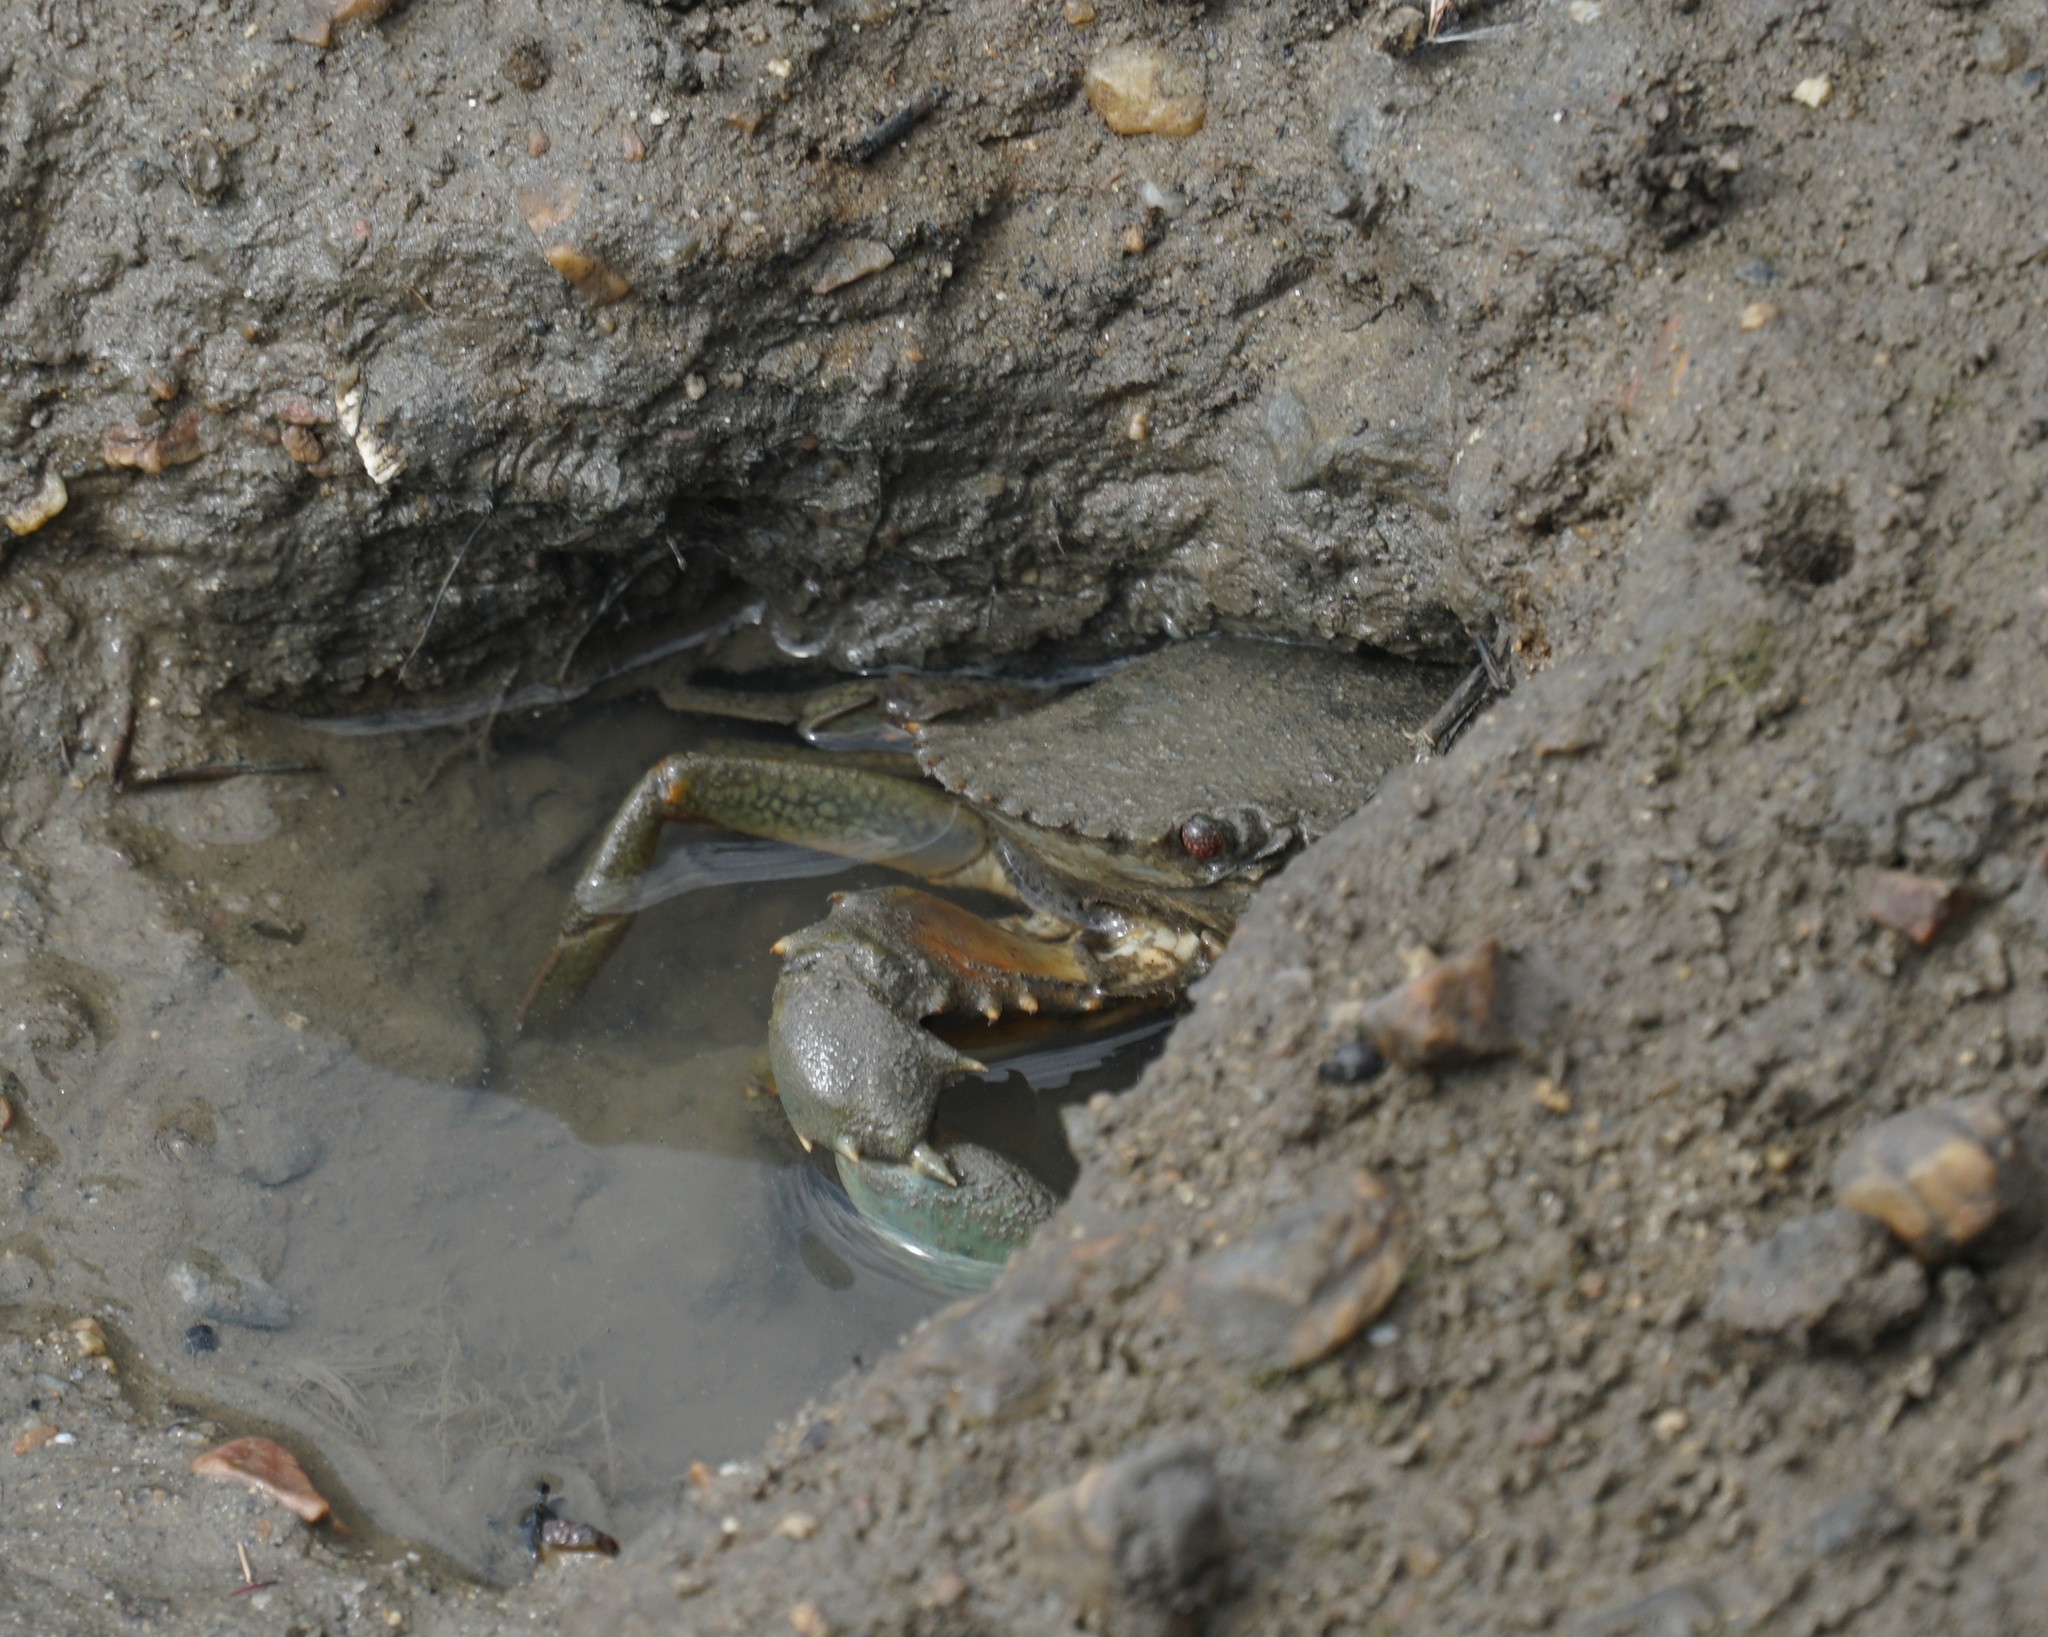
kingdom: Animalia
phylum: Arthropoda
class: Malacostraca
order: Decapoda
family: Portunidae
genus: Scylla
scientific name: Scylla serrata
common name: Giant mud crab
